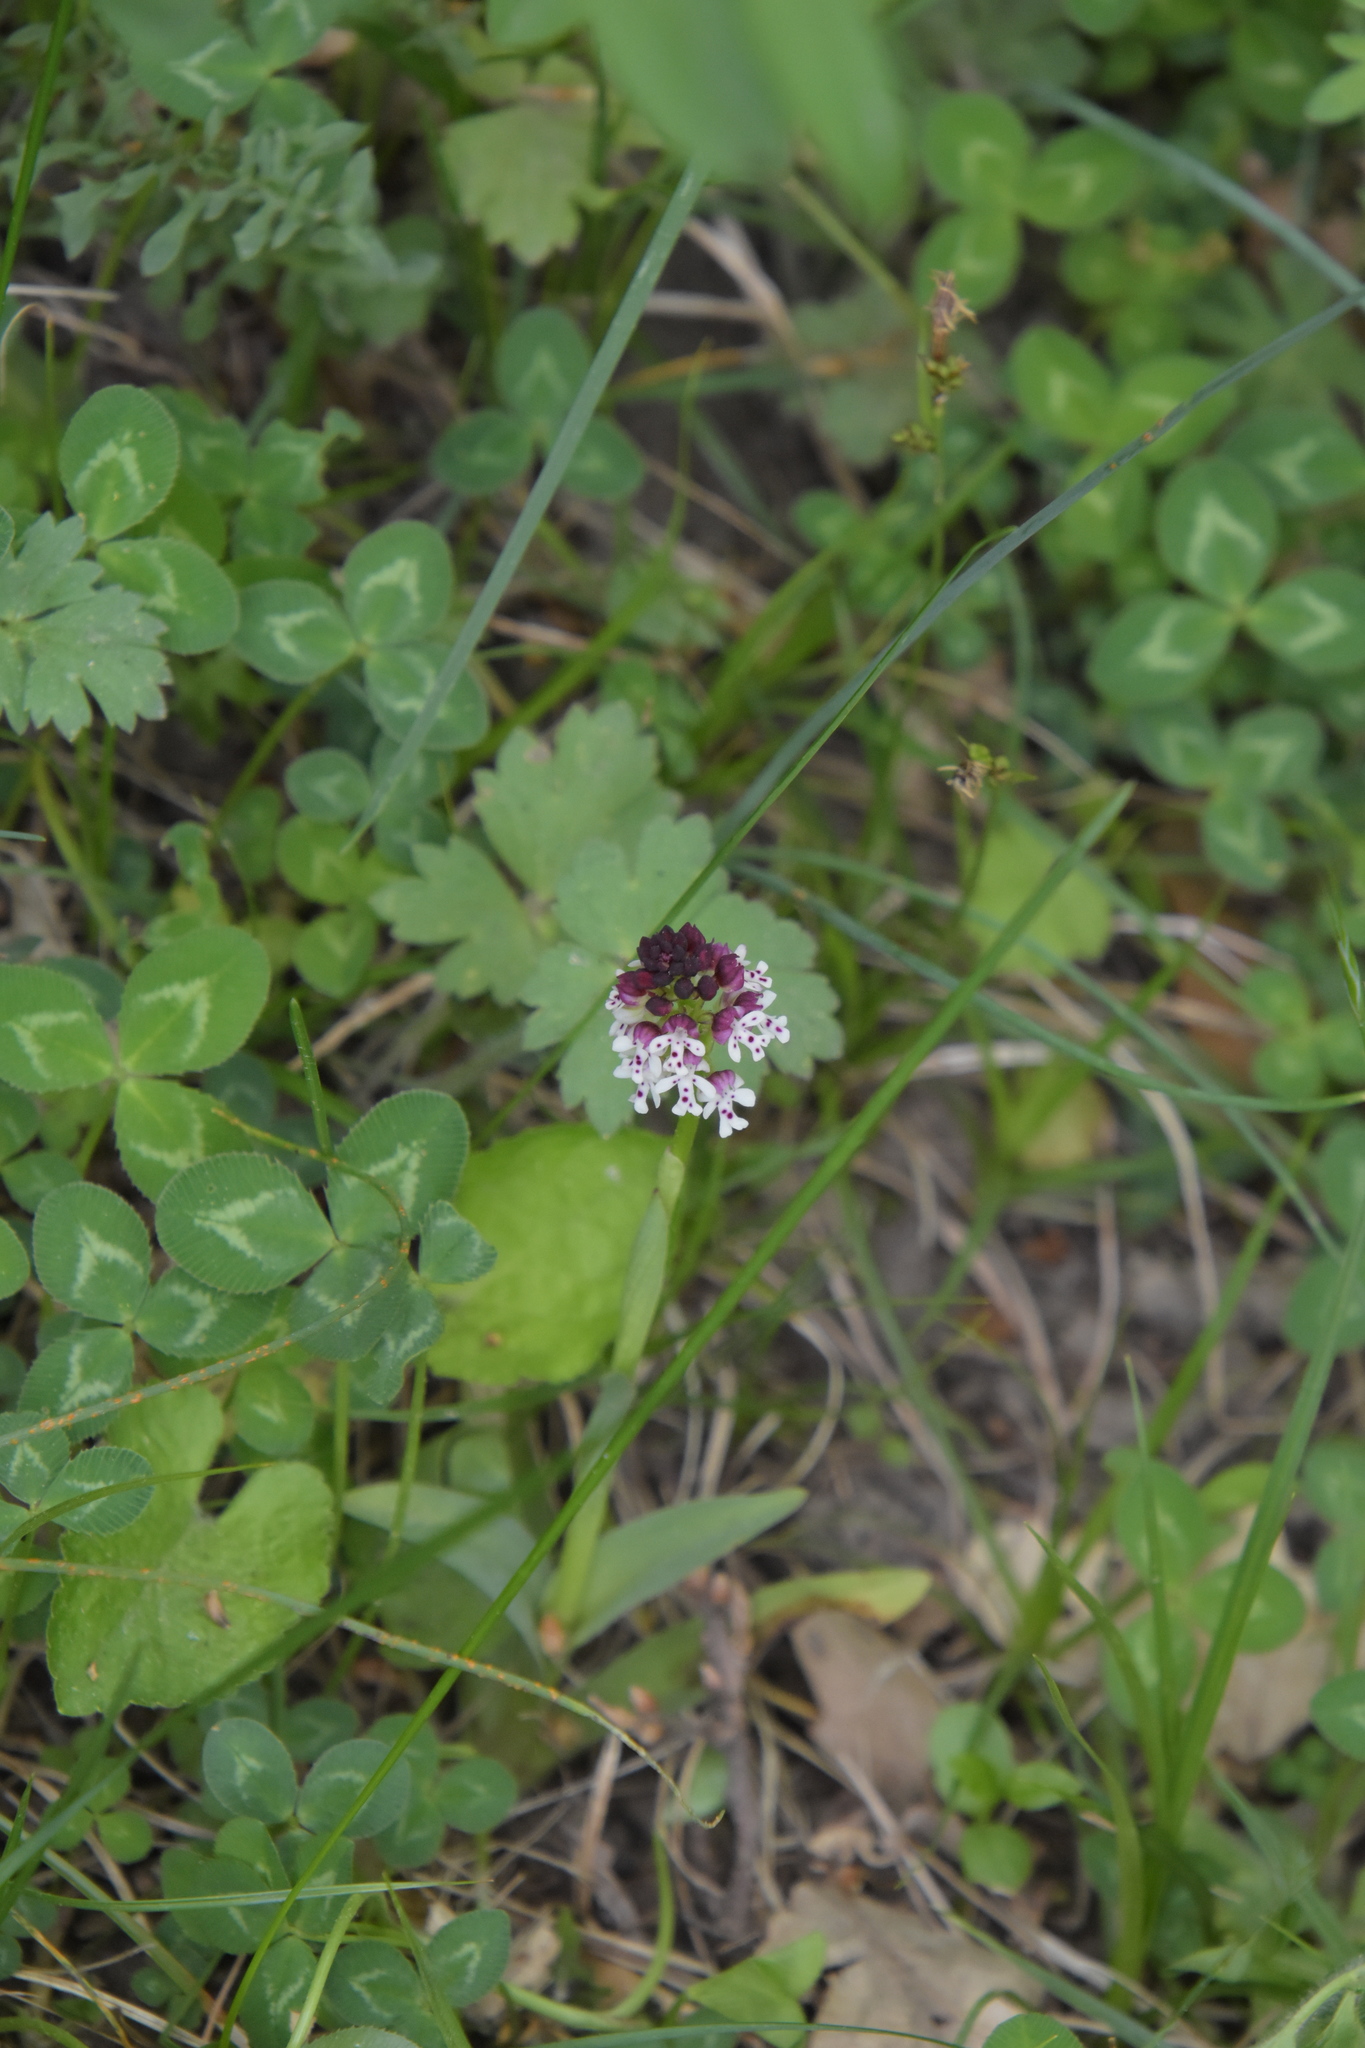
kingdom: Plantae
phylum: Tracheophyta
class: Liliopsida
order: Asparagales
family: Orchidaceae
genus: Neotinea
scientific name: Neotinea ustulata
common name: Burnt orchid
